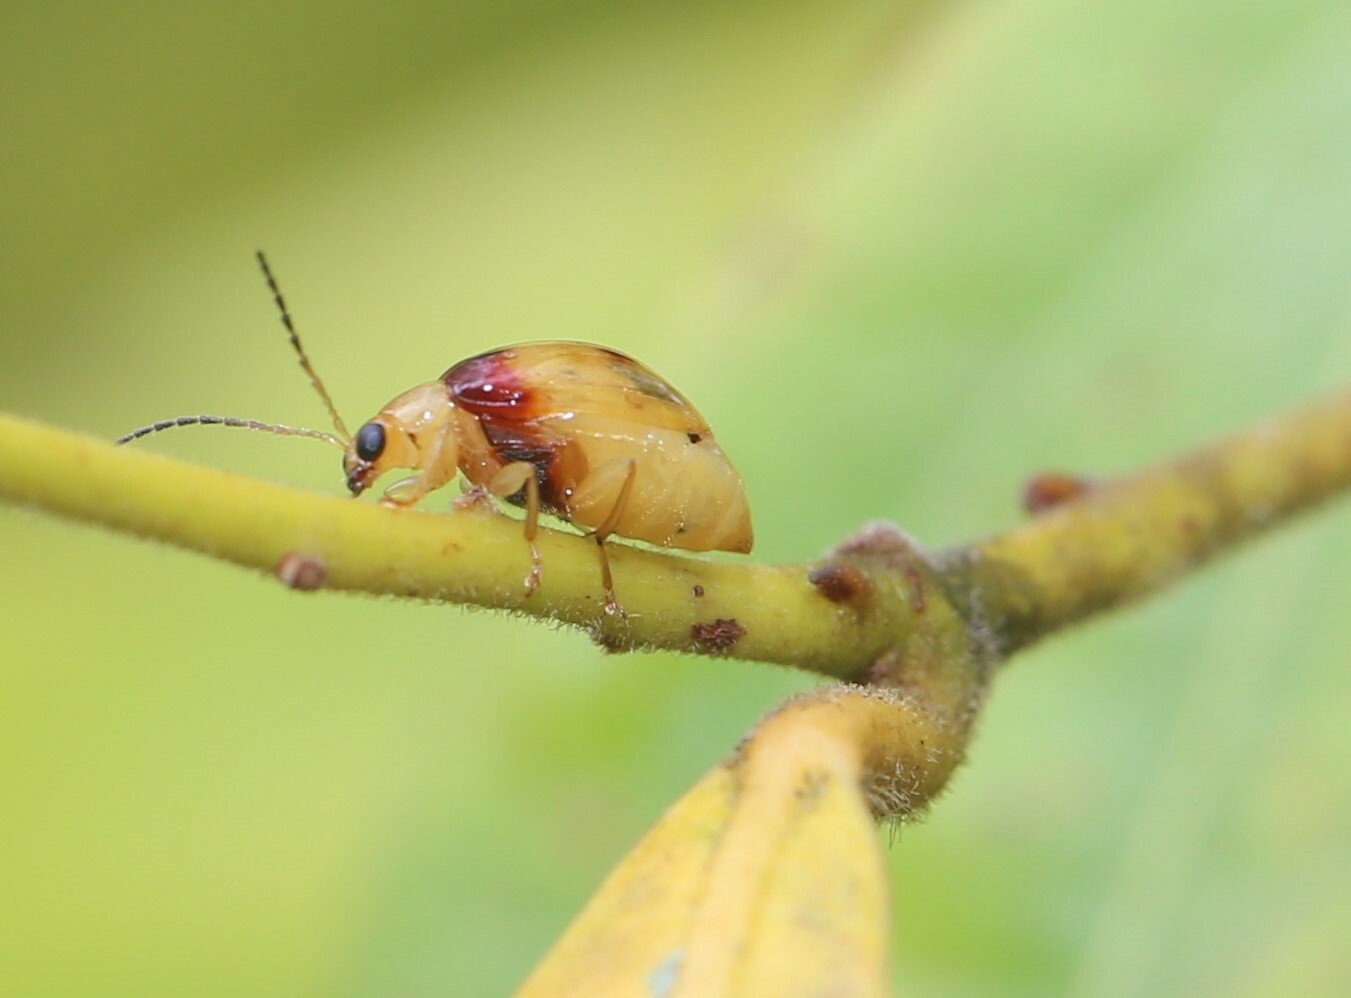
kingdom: Animalia
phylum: Arthropoda
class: Insecta
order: Coleoptera
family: Chrysomelidae
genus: Monolepta
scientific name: Monolepta
